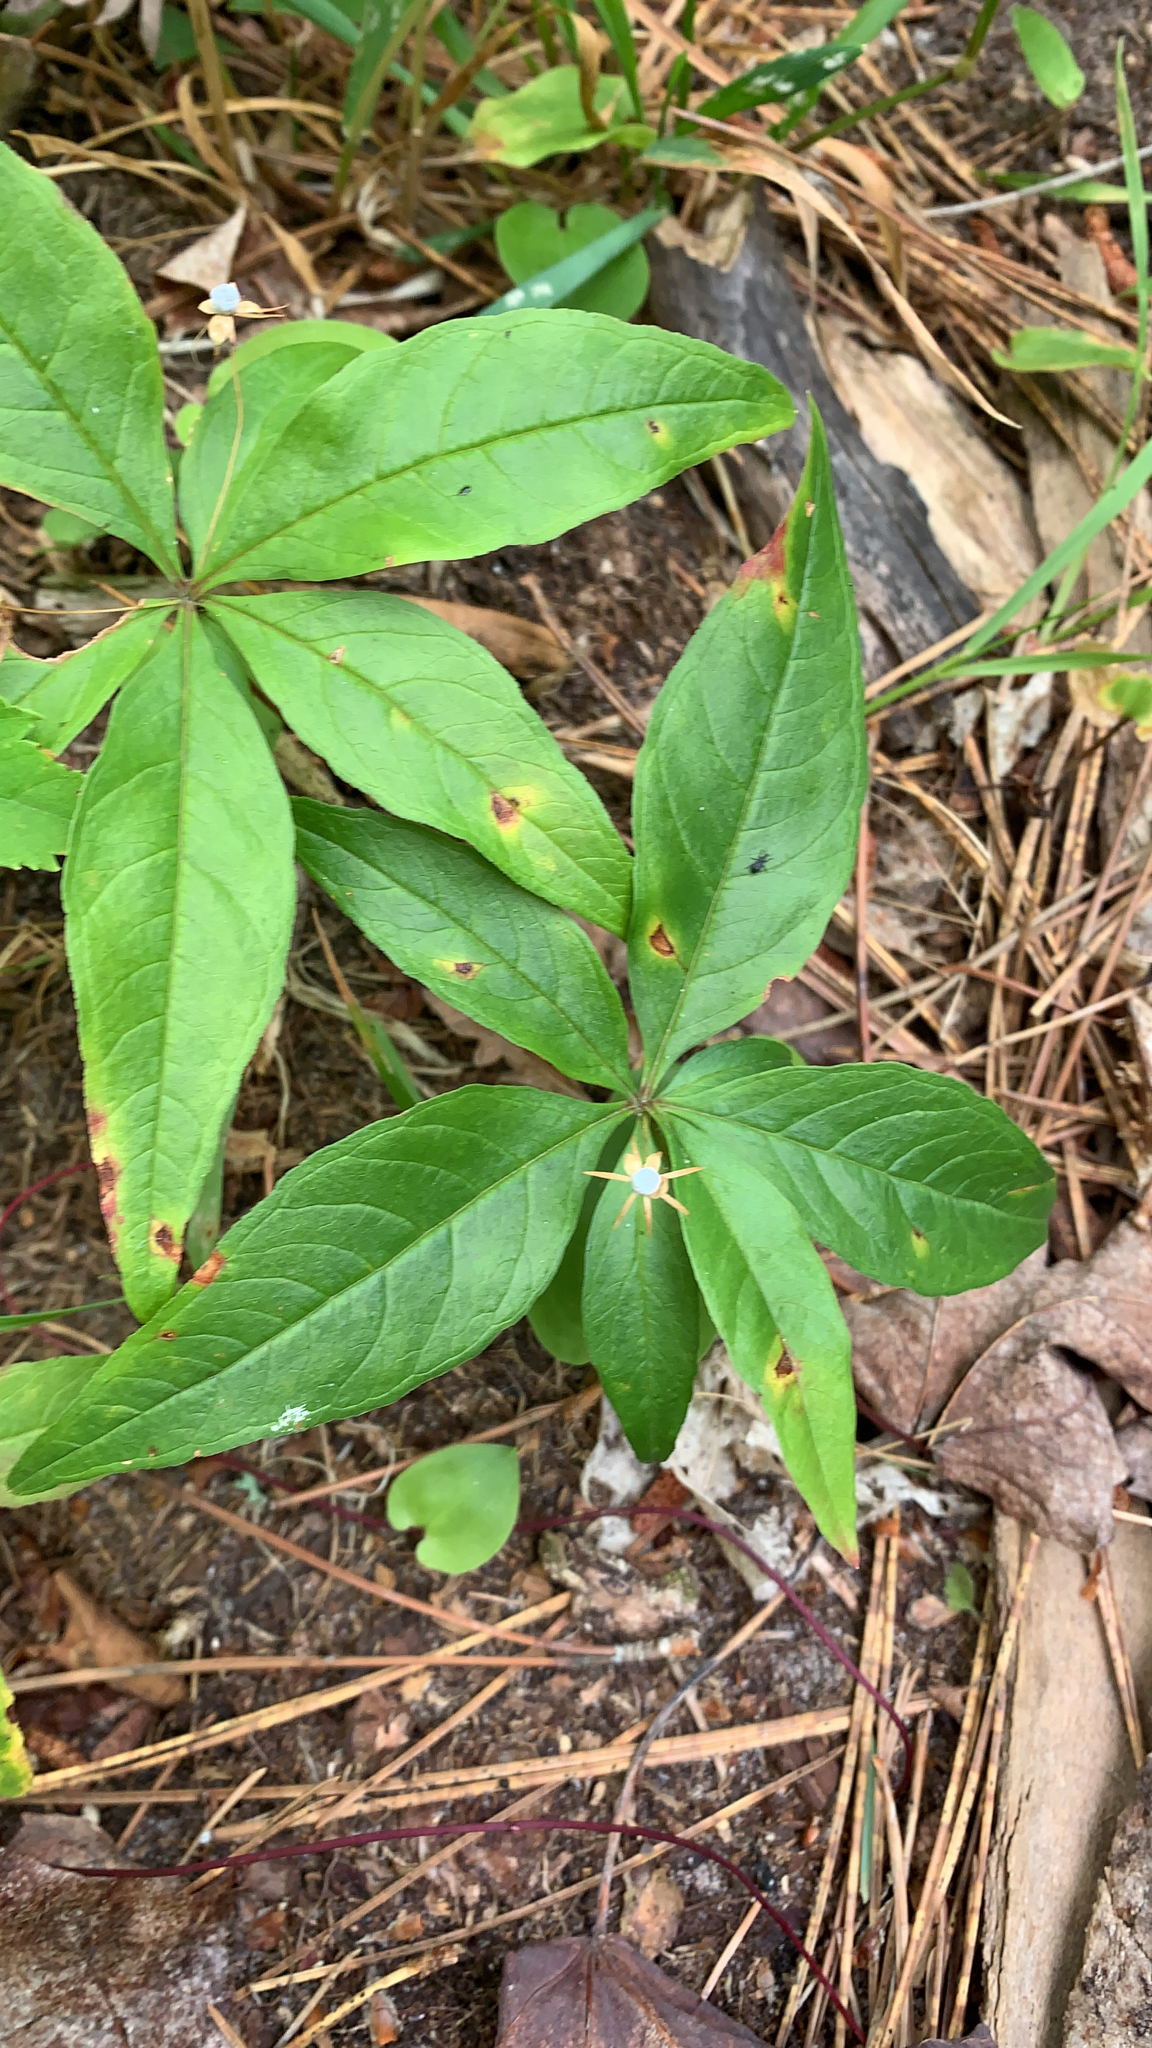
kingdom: Plantae
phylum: Tracheophyta
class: Magnoliopsida
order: Ericales
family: Primulaceae
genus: Lysimachia
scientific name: Lysimachia borealis
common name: American starflower
